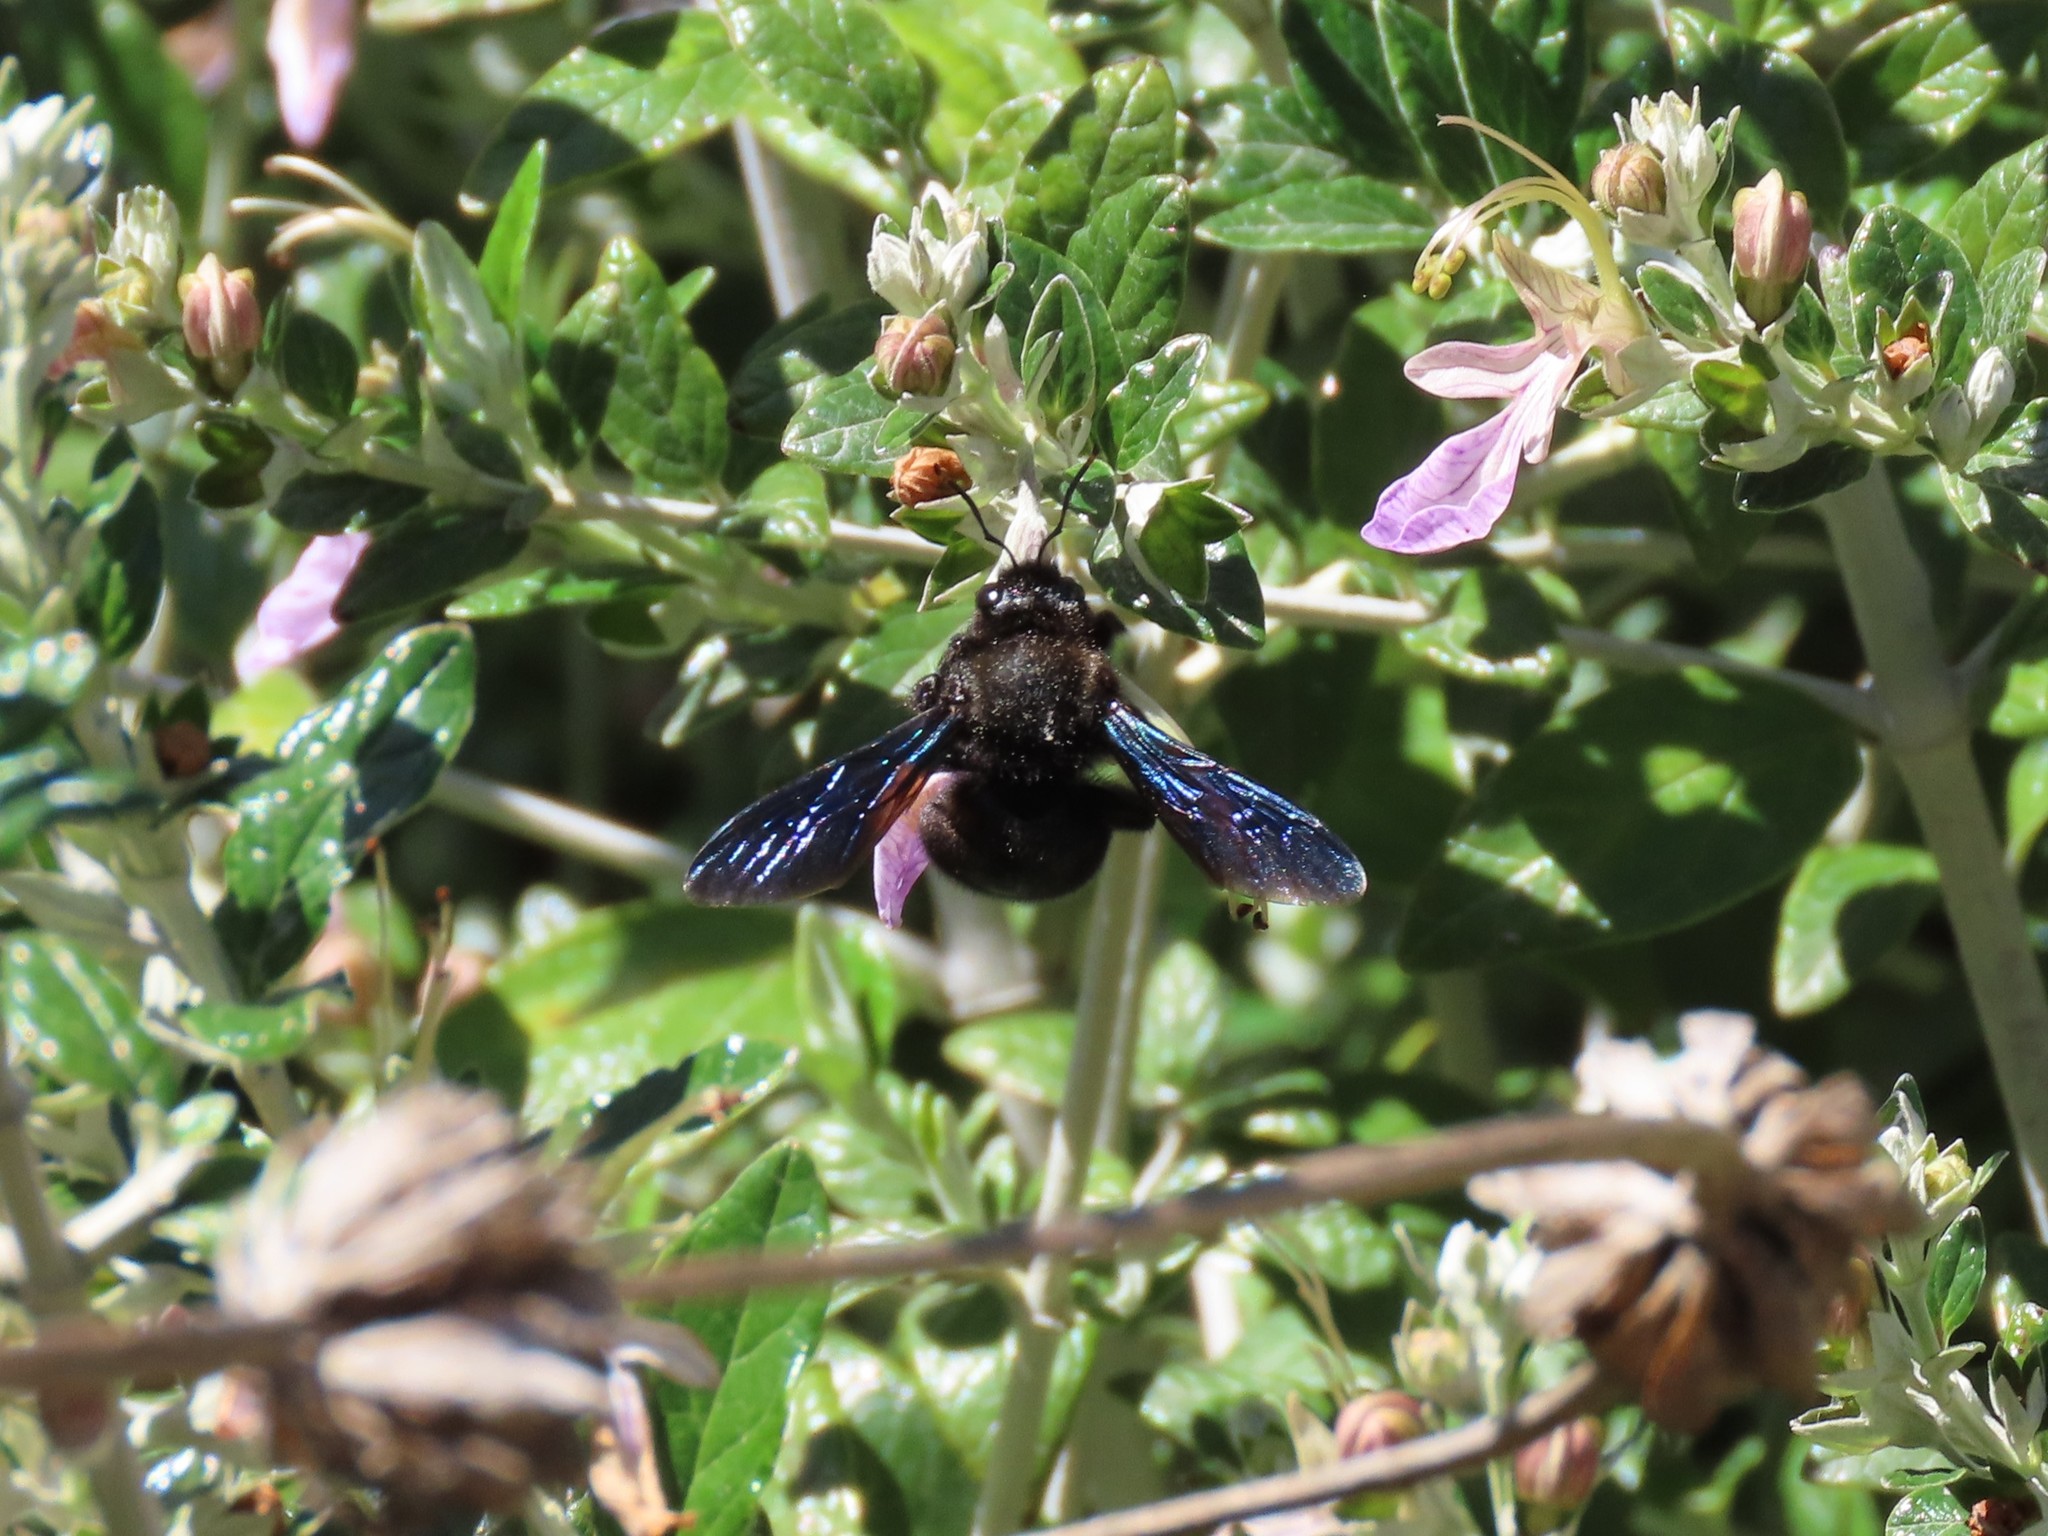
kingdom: Animalia
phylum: Arthropoda
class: Insecta
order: Hymenoptera
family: Apidae
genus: Xylocopa
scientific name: Xylocopa violacea
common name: Violet carpenter bee
